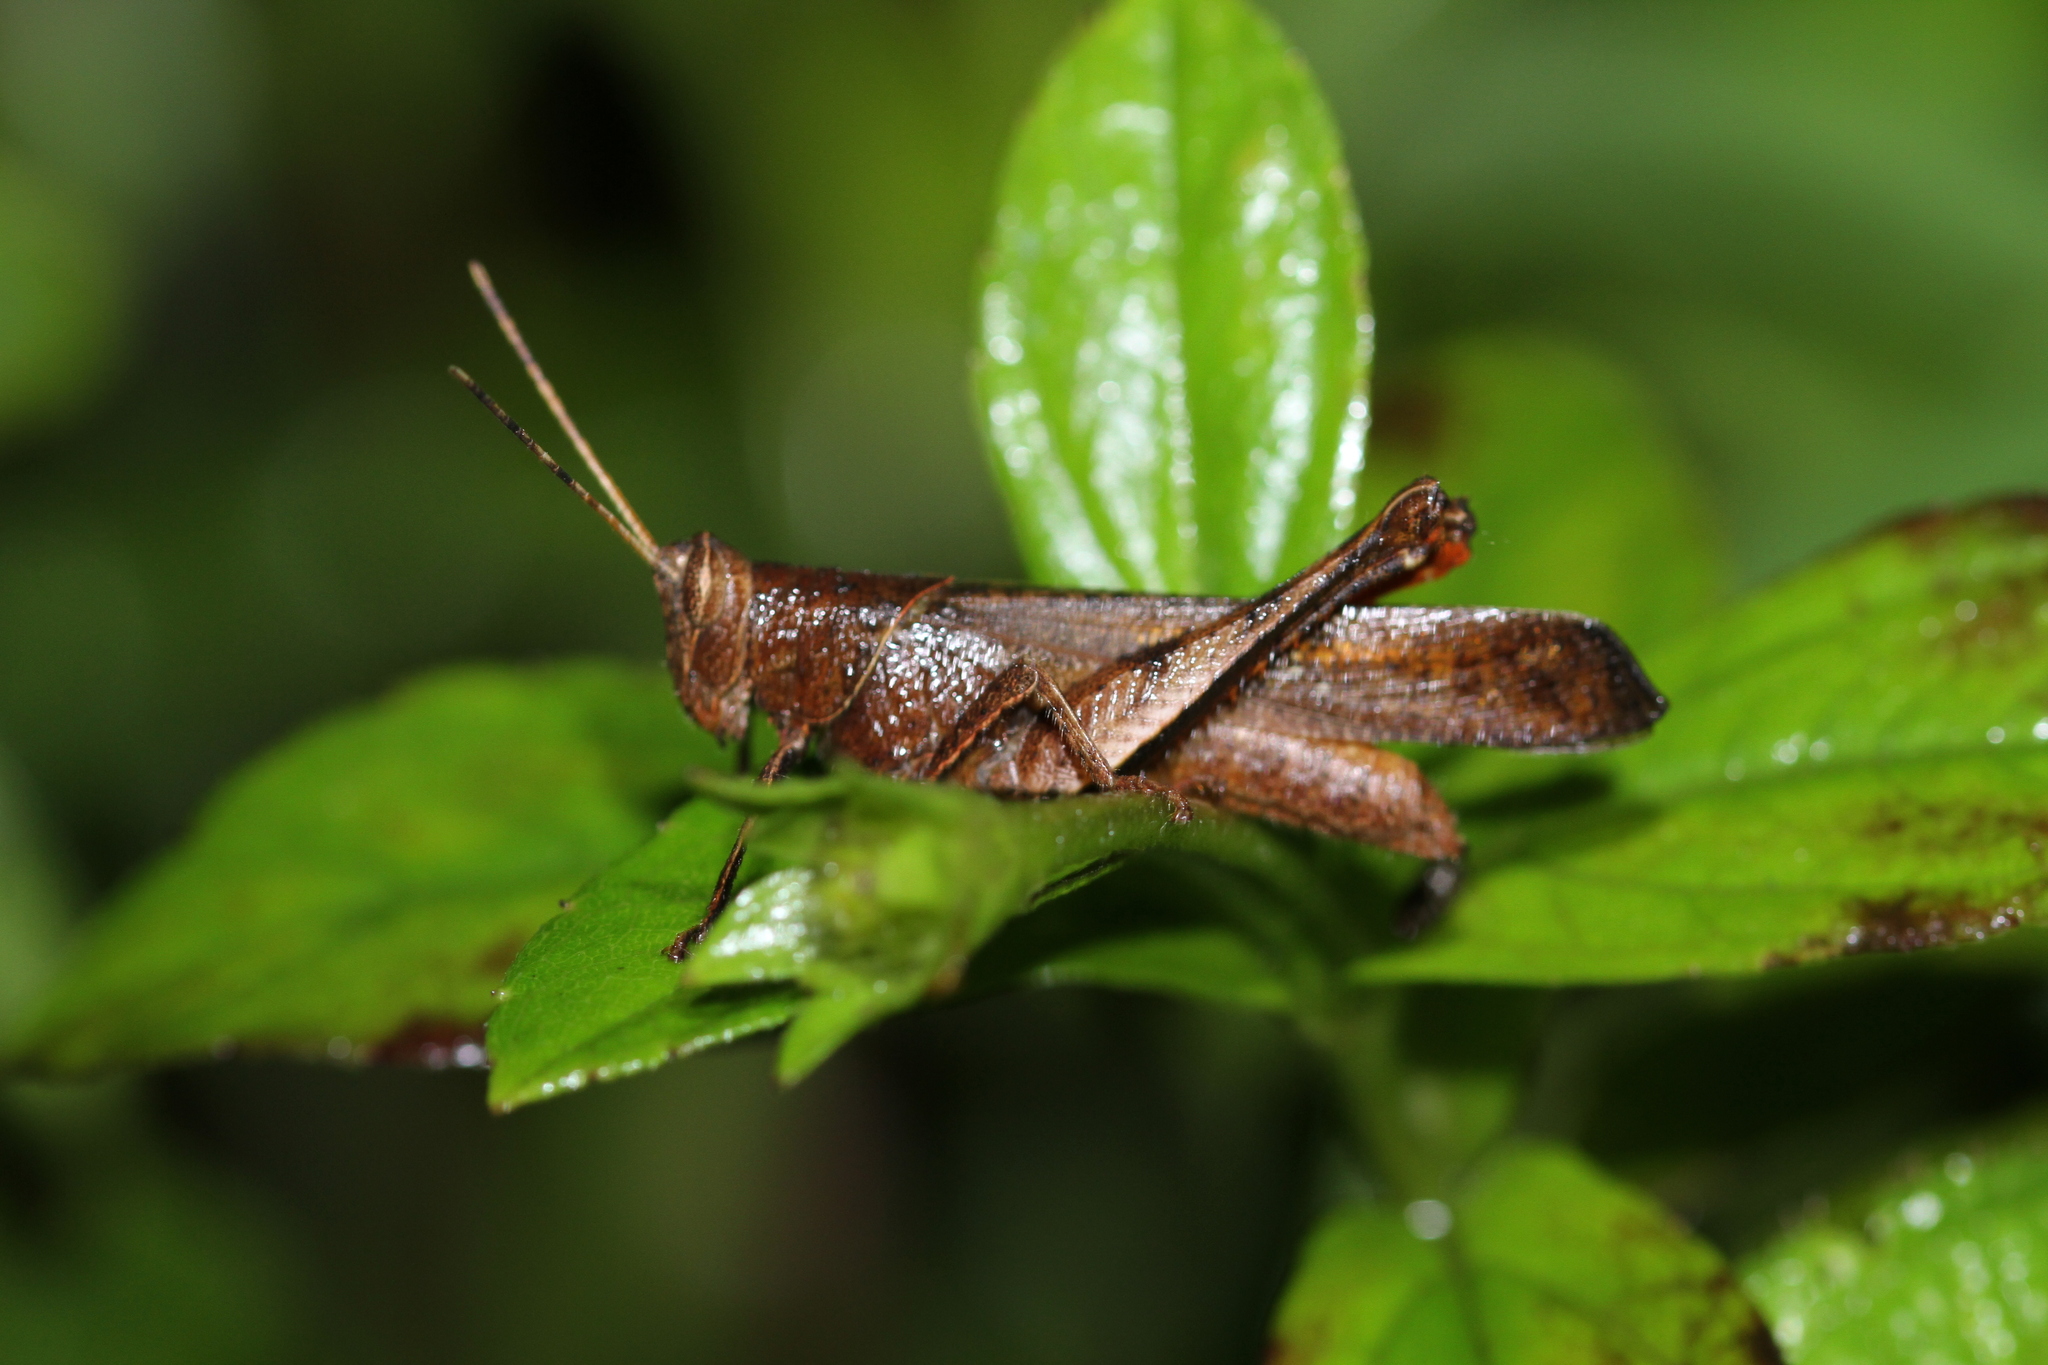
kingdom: Animalia
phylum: Arthropoda
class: Insecta
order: Orthoptera
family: Acrididae
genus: Coptacra
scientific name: Coptacra foedata
